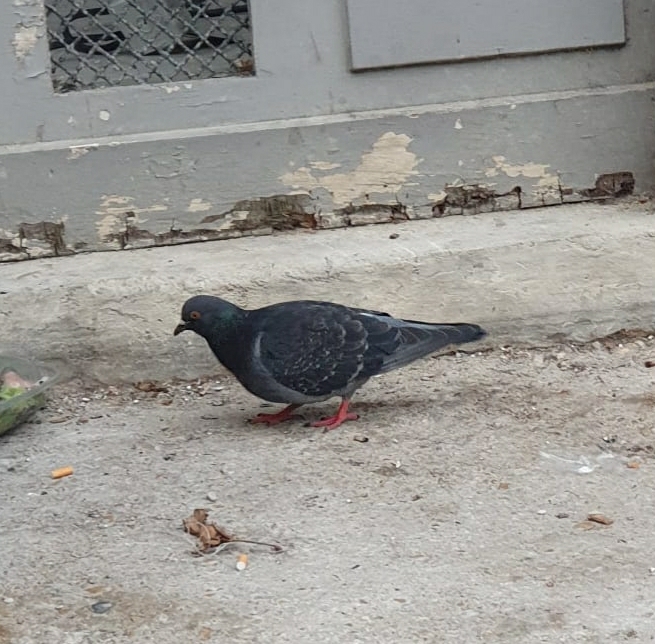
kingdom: Animalia
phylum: Chordata
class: Aves
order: Columbiformes
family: Columbidae
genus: Columba
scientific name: Columba livia
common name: Rock pigeon
